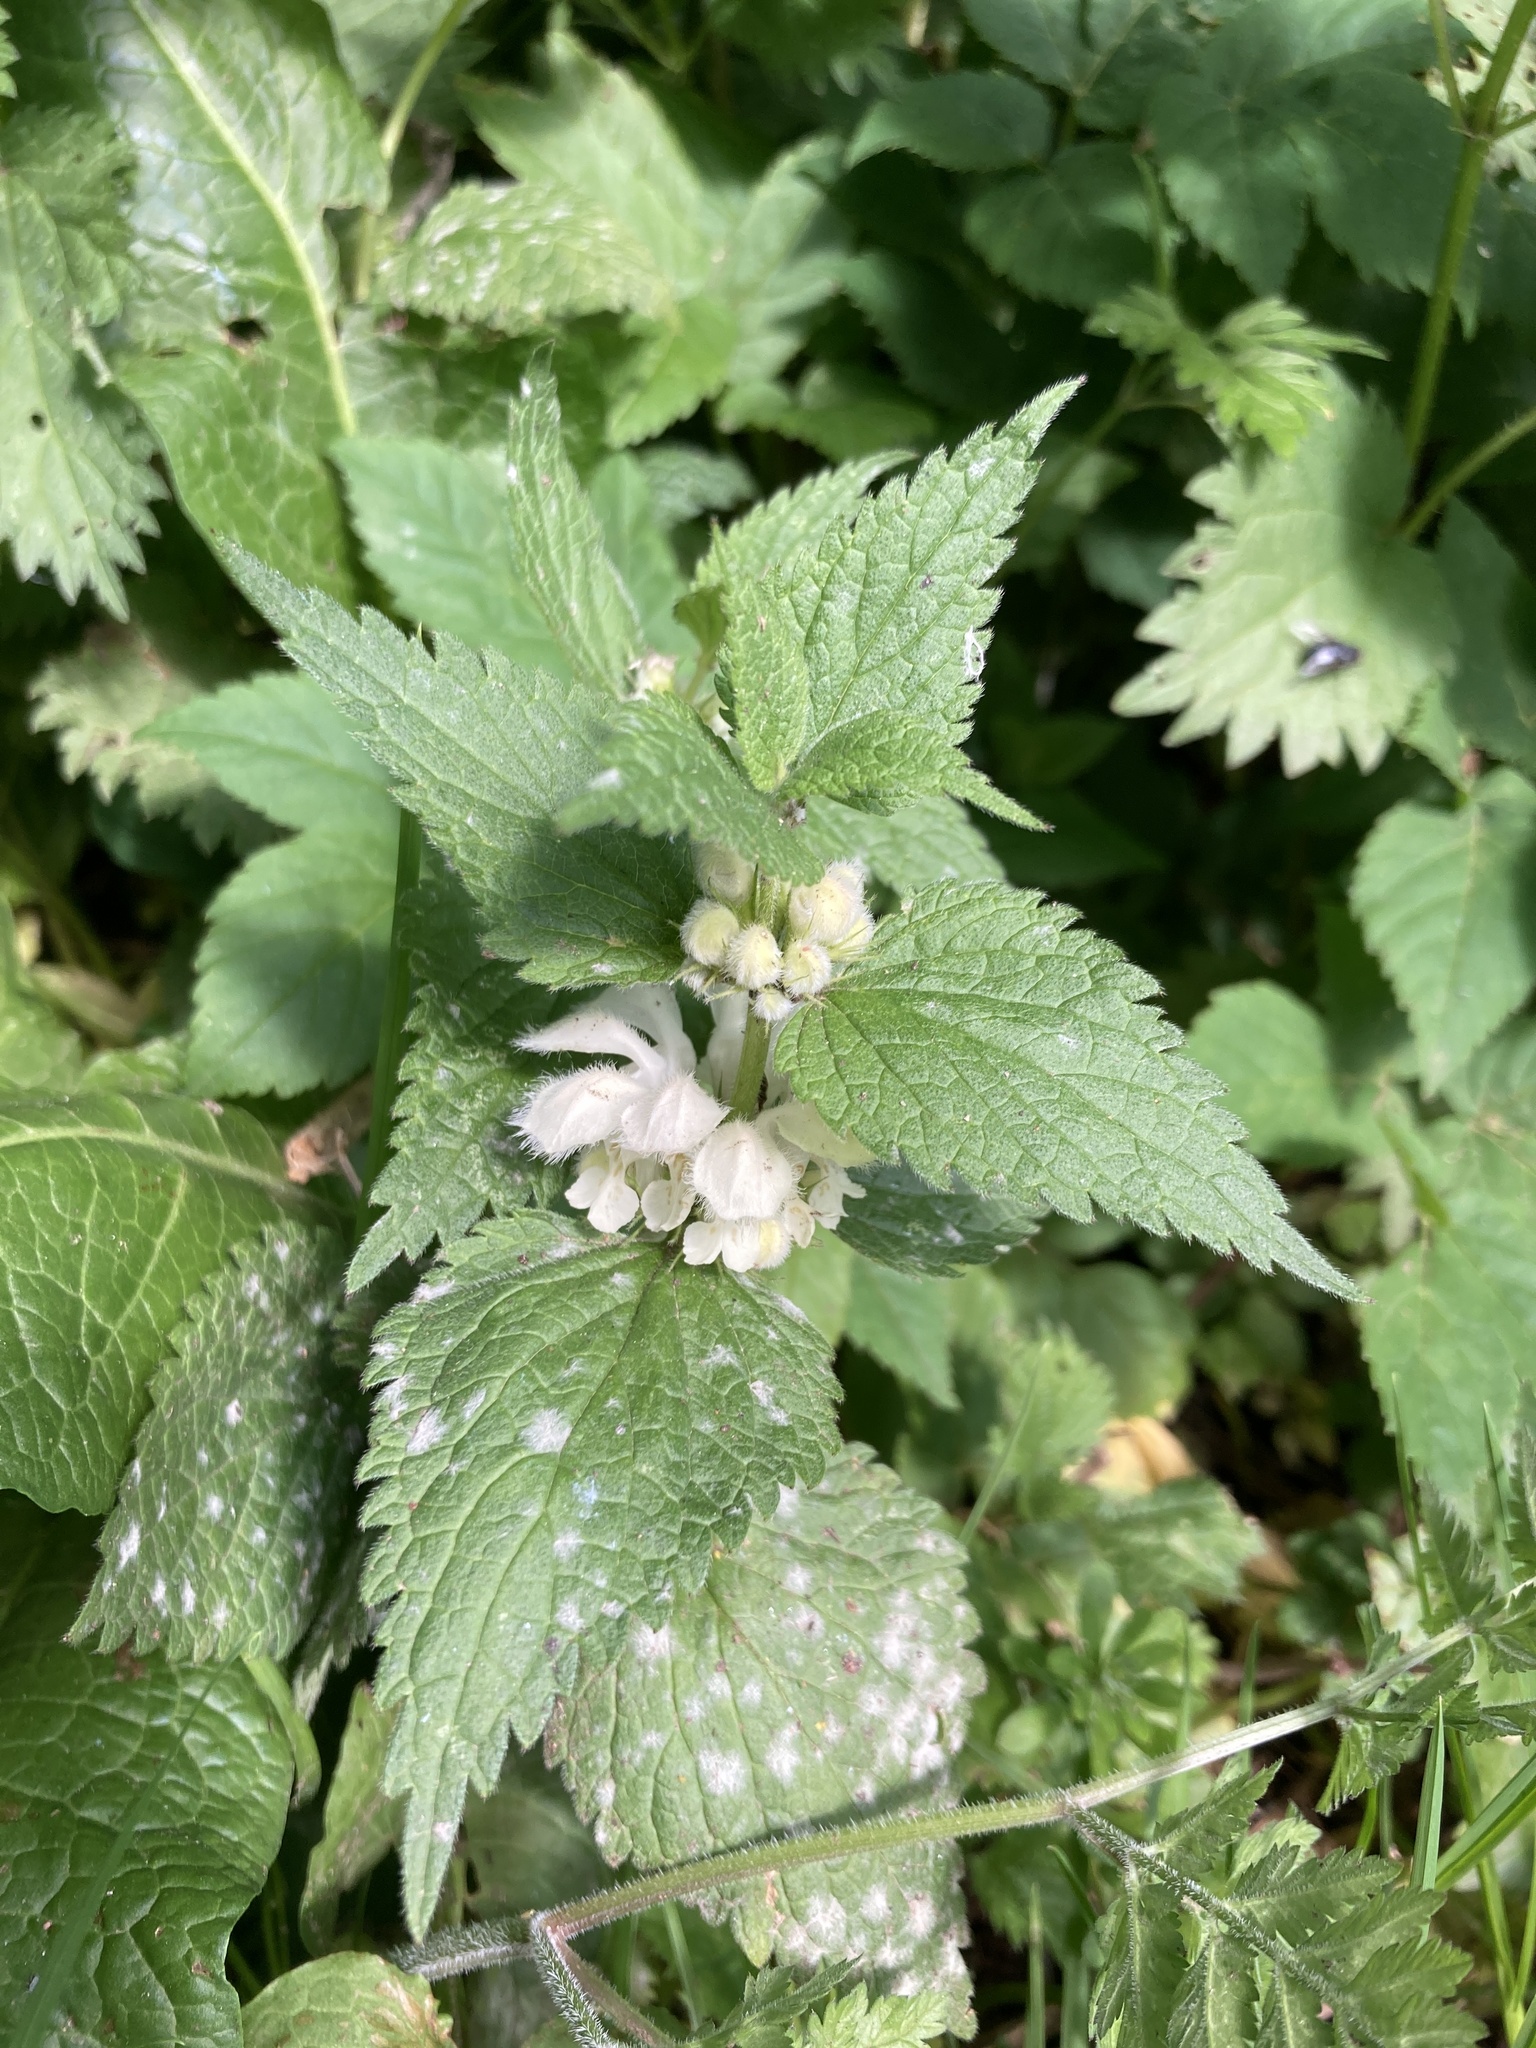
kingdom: Plantae
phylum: Tracheophyta
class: Magnoliopsida
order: Lamiales
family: Lamiaceae
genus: Lamium
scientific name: Lamium album
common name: White dead-nettle
